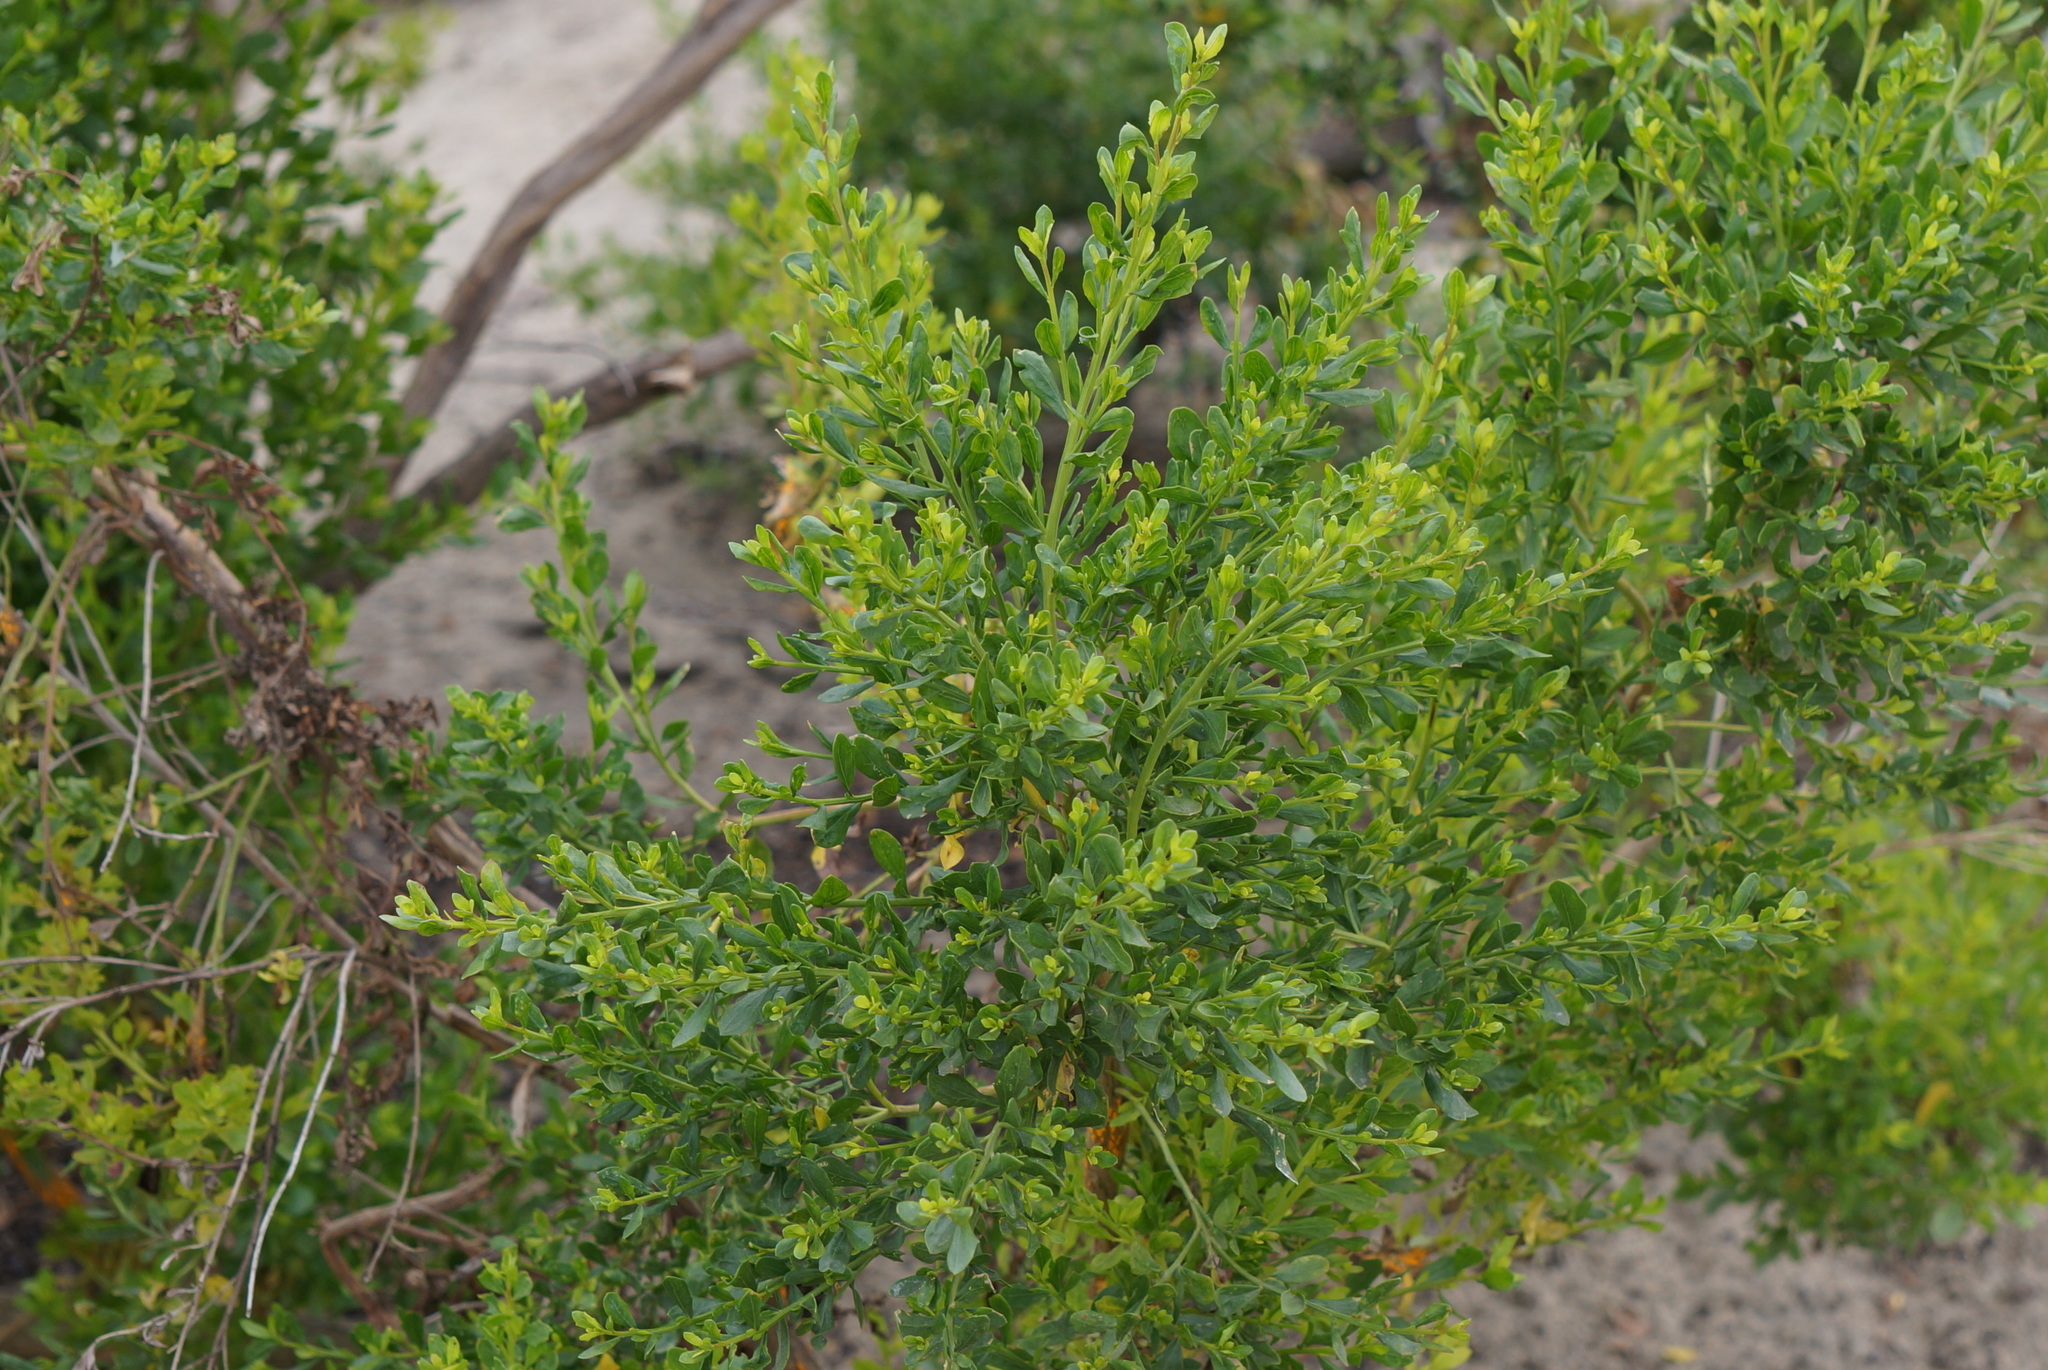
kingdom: Plantae
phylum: Tracheophyta
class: Magnoliopsida
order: Asterales
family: Asteraceae
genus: Baccharis
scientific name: Baccharis pilularis
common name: Coyotebrush
